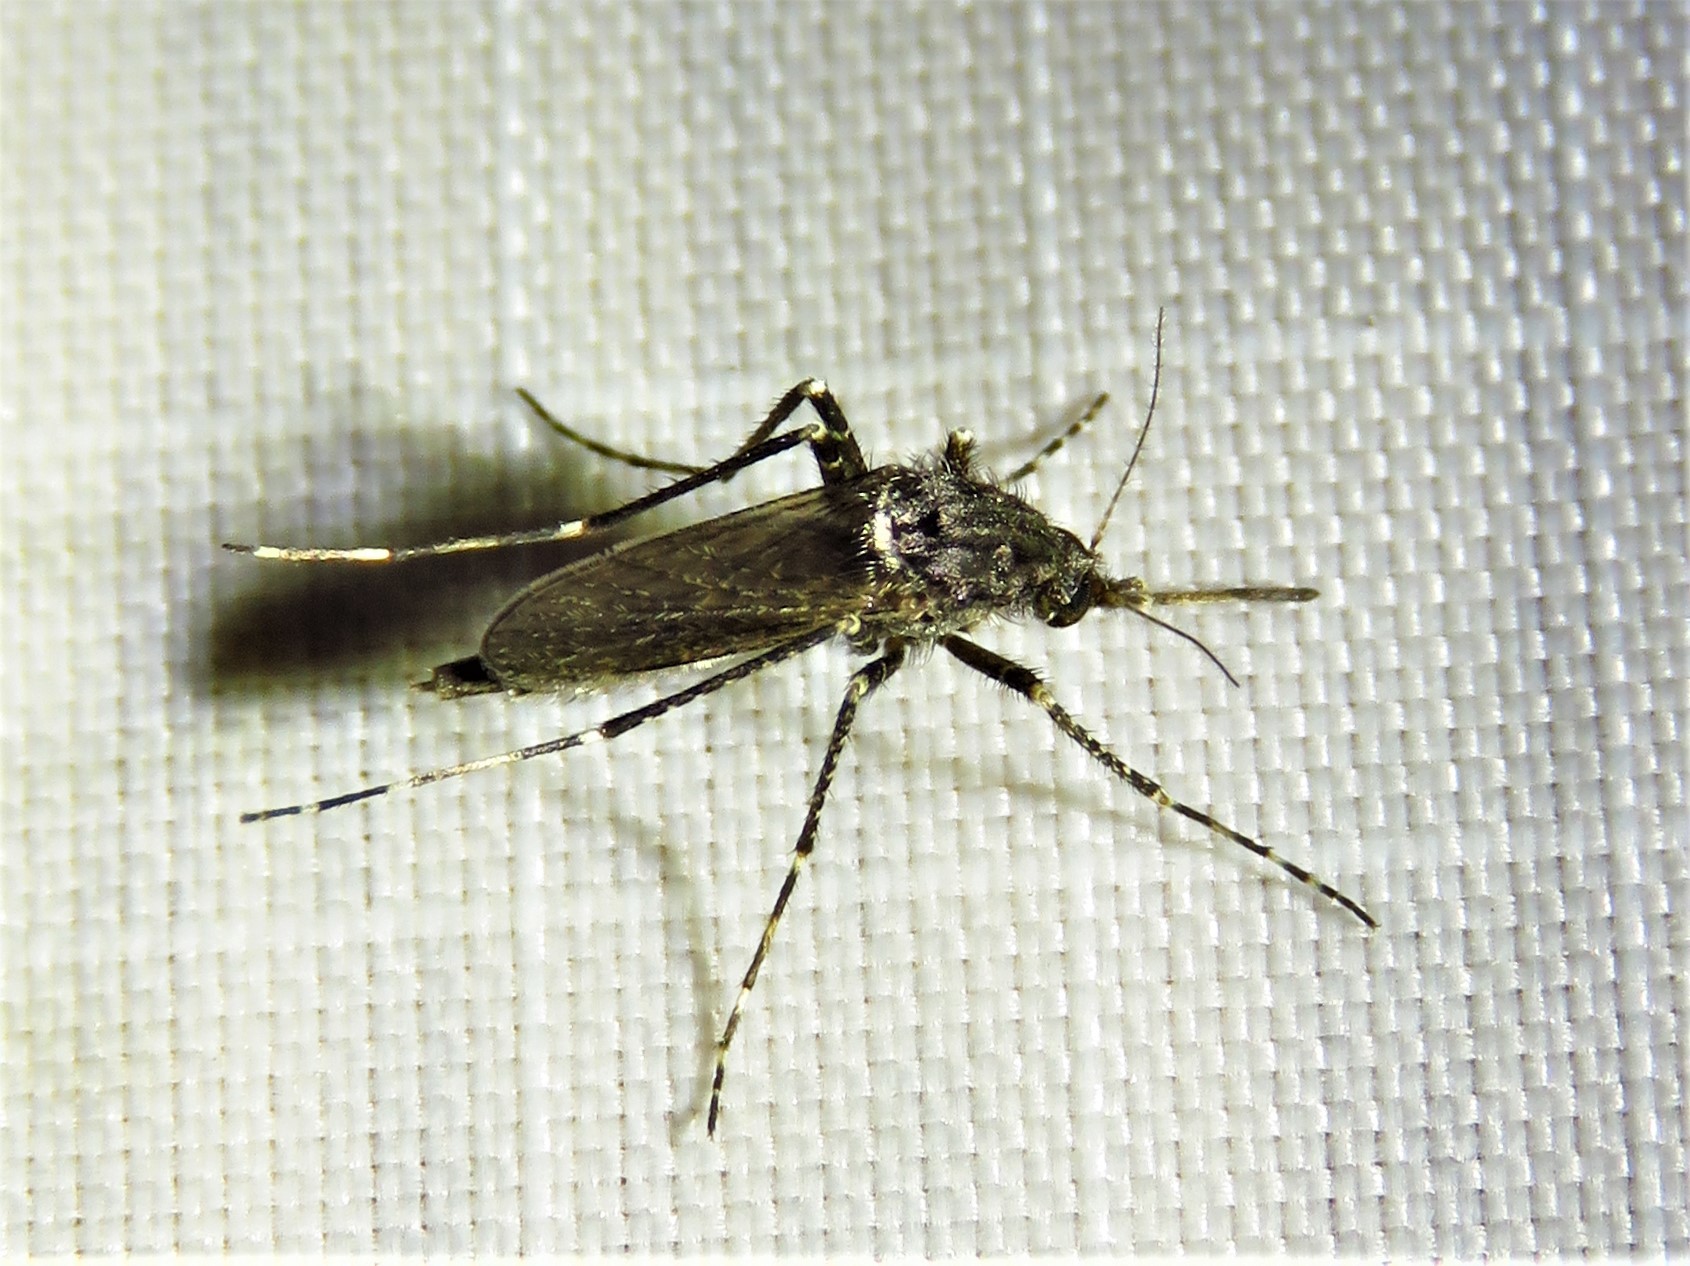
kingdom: Animalia
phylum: Arthropoda
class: Insecta
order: Diptera
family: Culicidae
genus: Psorophora
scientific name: Psorophora columbiae
